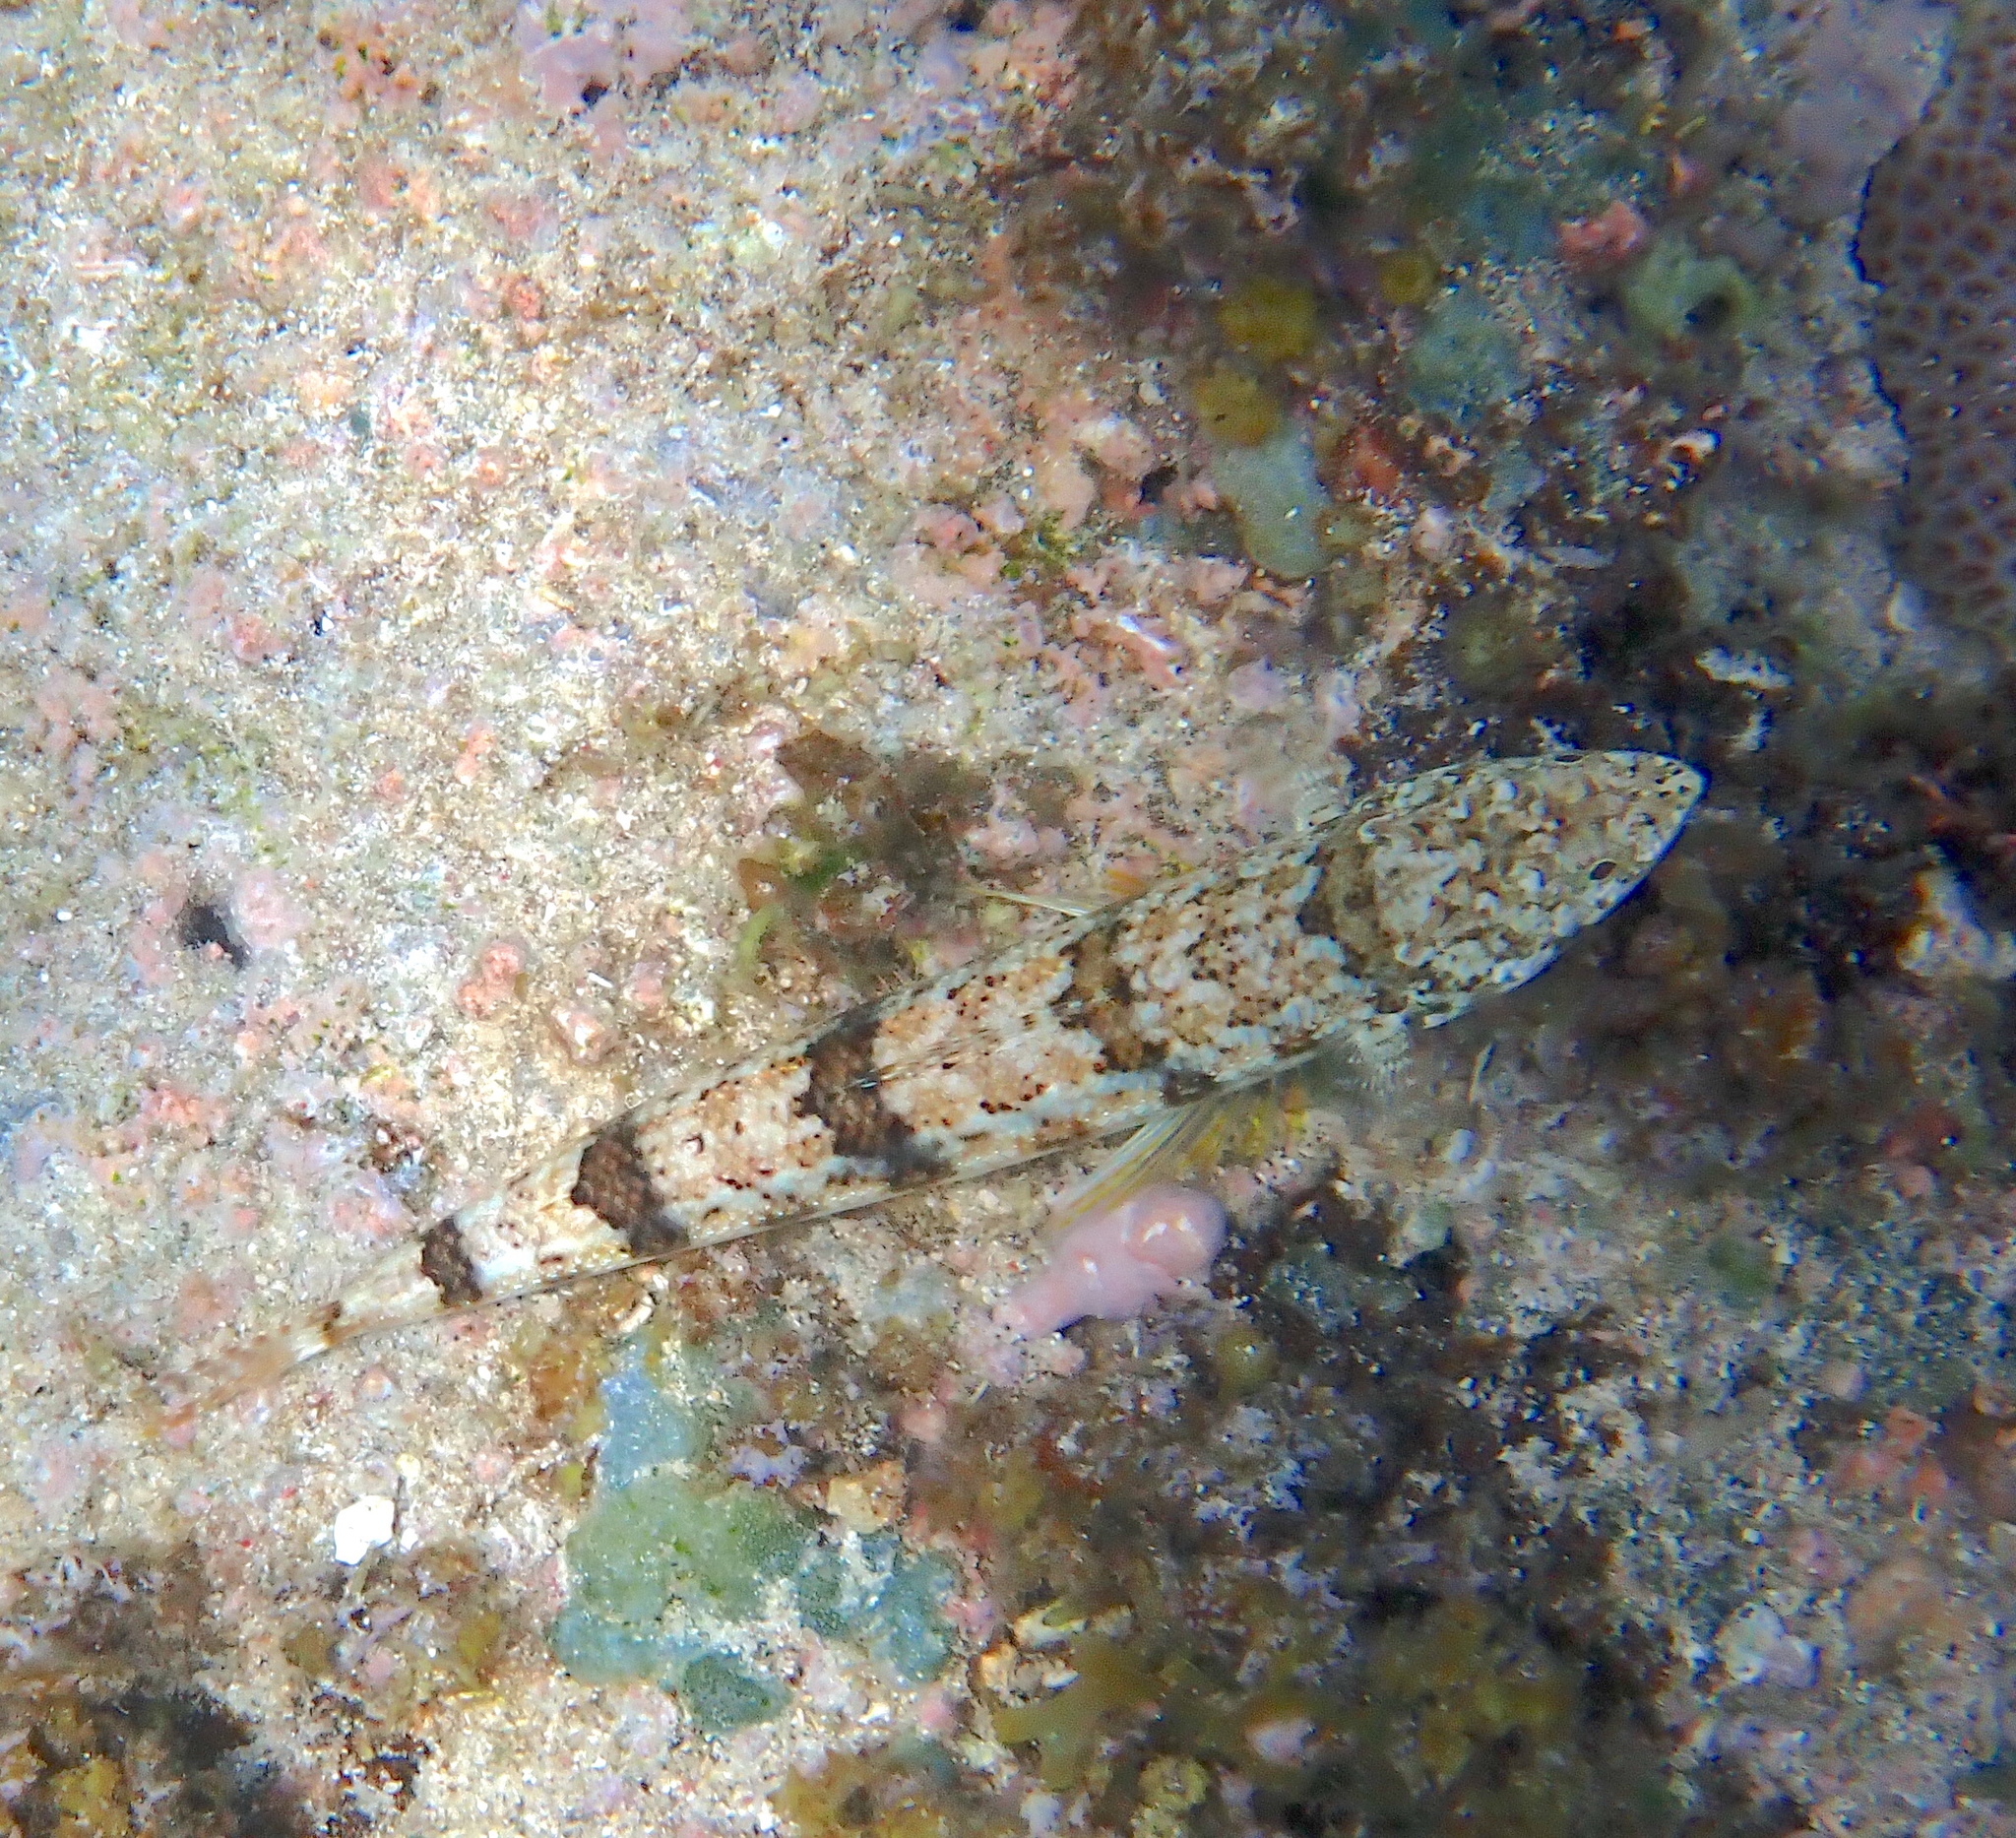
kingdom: Animalia
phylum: Chordata
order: Aulopiformes
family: Synodontidae
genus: Synodus
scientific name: Synodus dermatogenys
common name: Banded lizardfish
